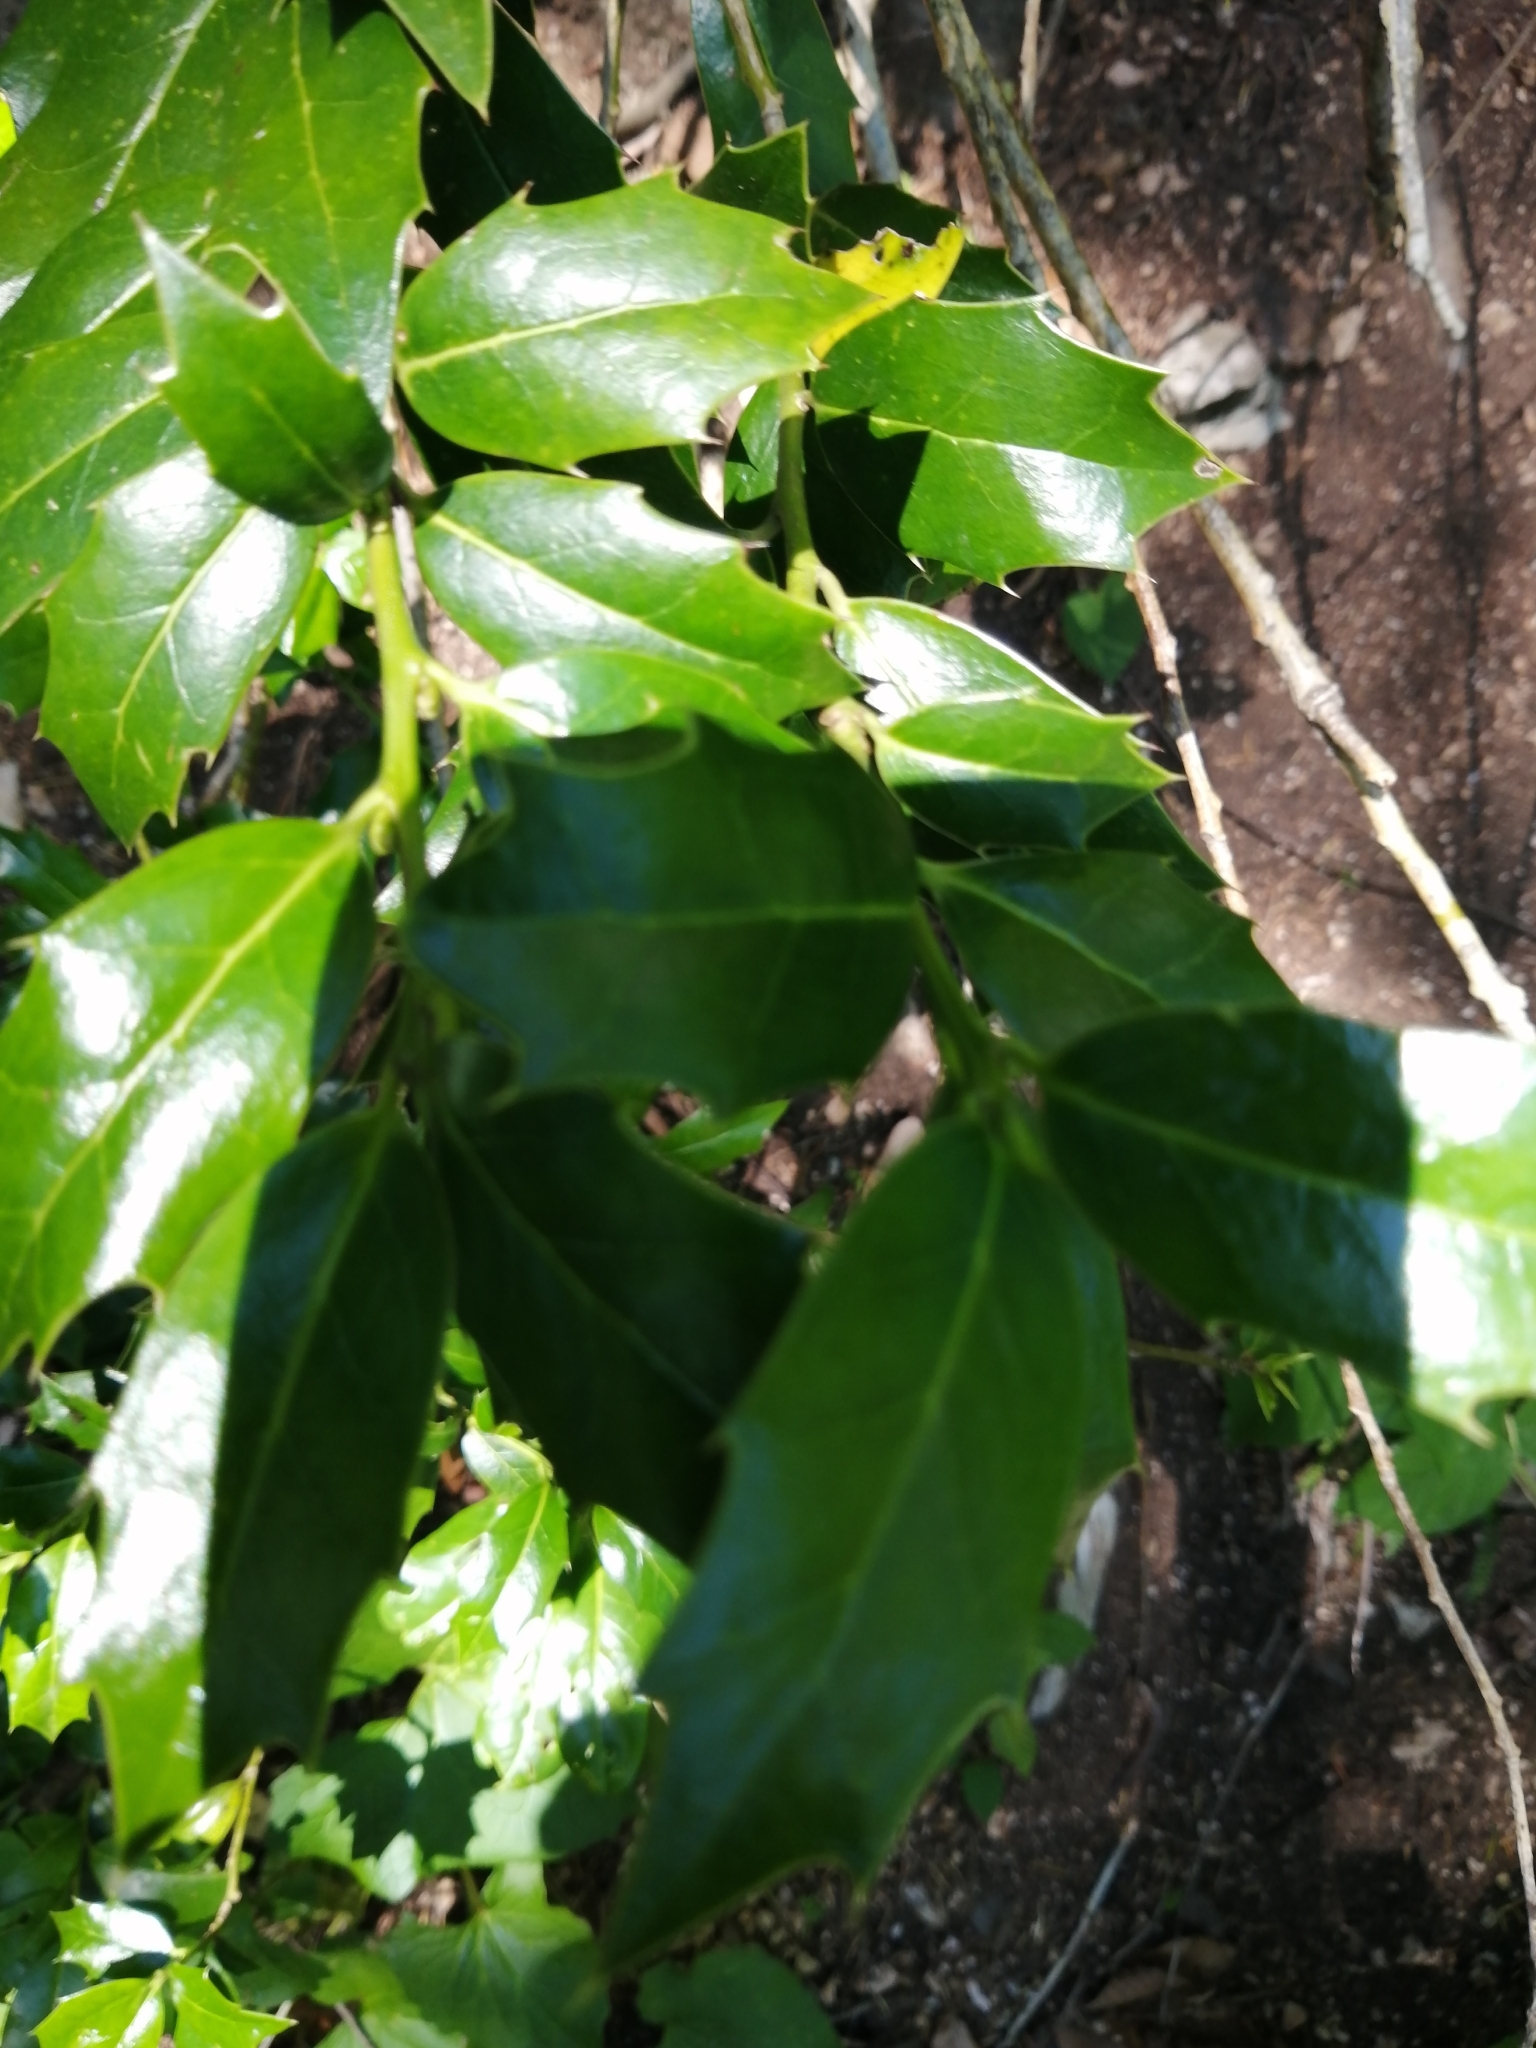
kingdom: Plantae
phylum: Tracheophyta
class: Magnoliopsida
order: Aquifoliales
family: Aquifoliaceae
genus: Ilex
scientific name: Ilex colchica
